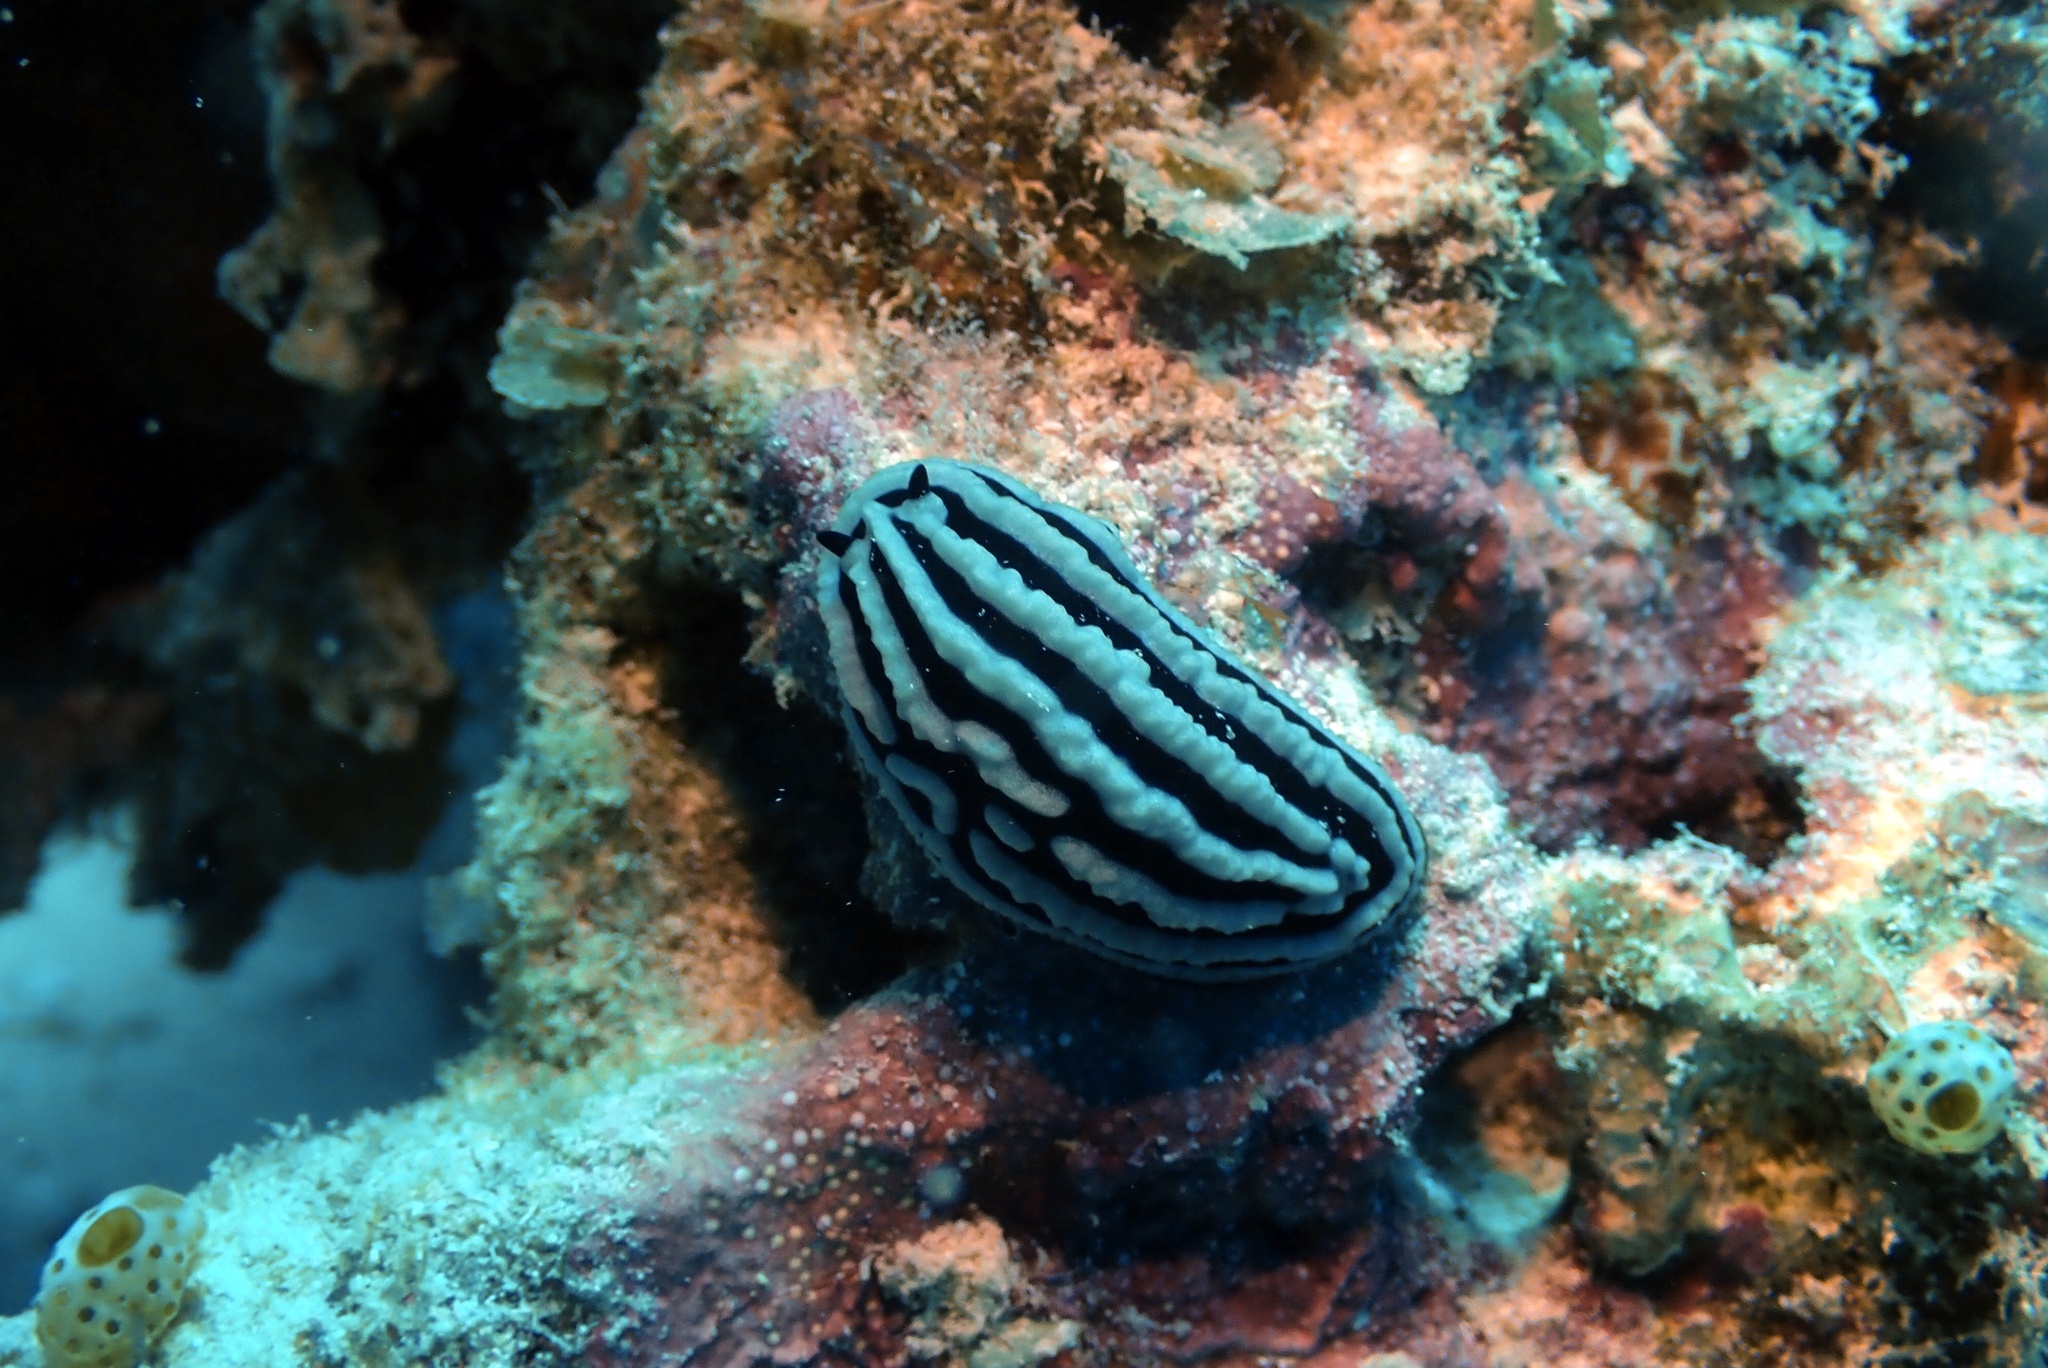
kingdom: Animalia
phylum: Mollusca
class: Gastropoda
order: Nudibranchia
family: Phyllidiidae
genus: Phyllidiella
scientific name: Phyllidiella rosans
